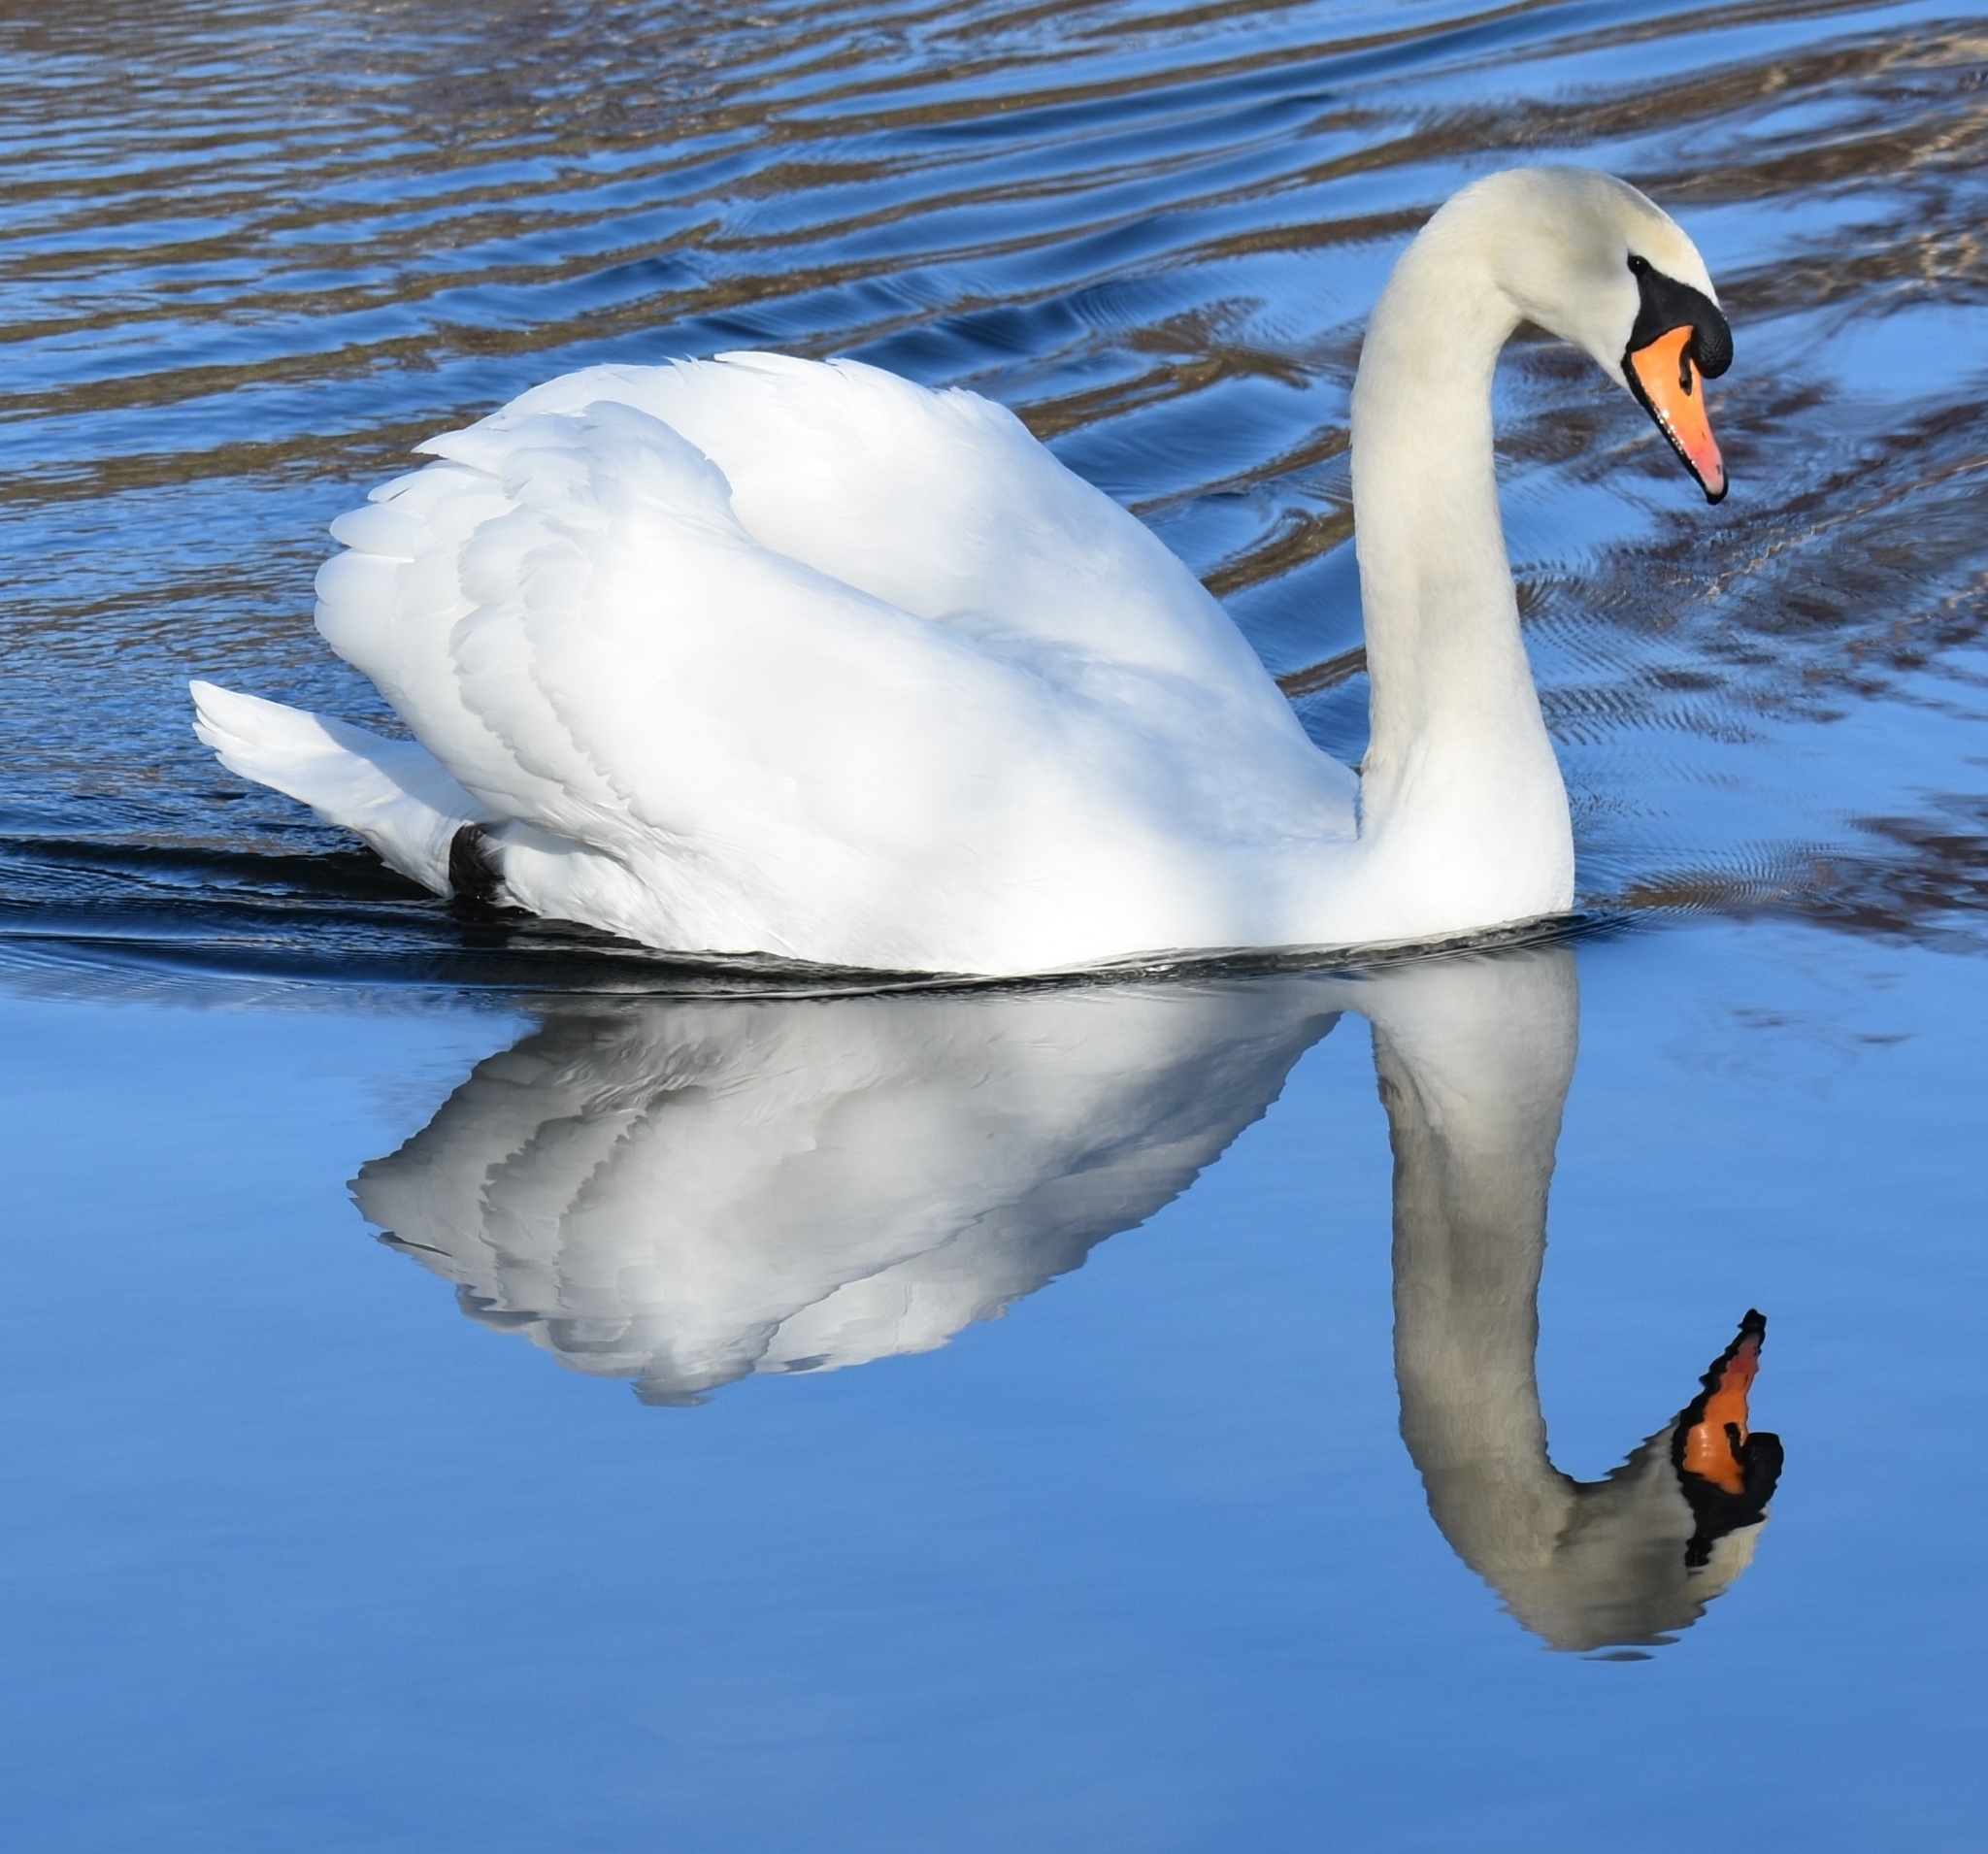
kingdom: Animalia
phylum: Chordata
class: Aves
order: Anseriformes
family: Anatidae
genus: Cygnus
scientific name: Cygnus olor
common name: Mute swan
